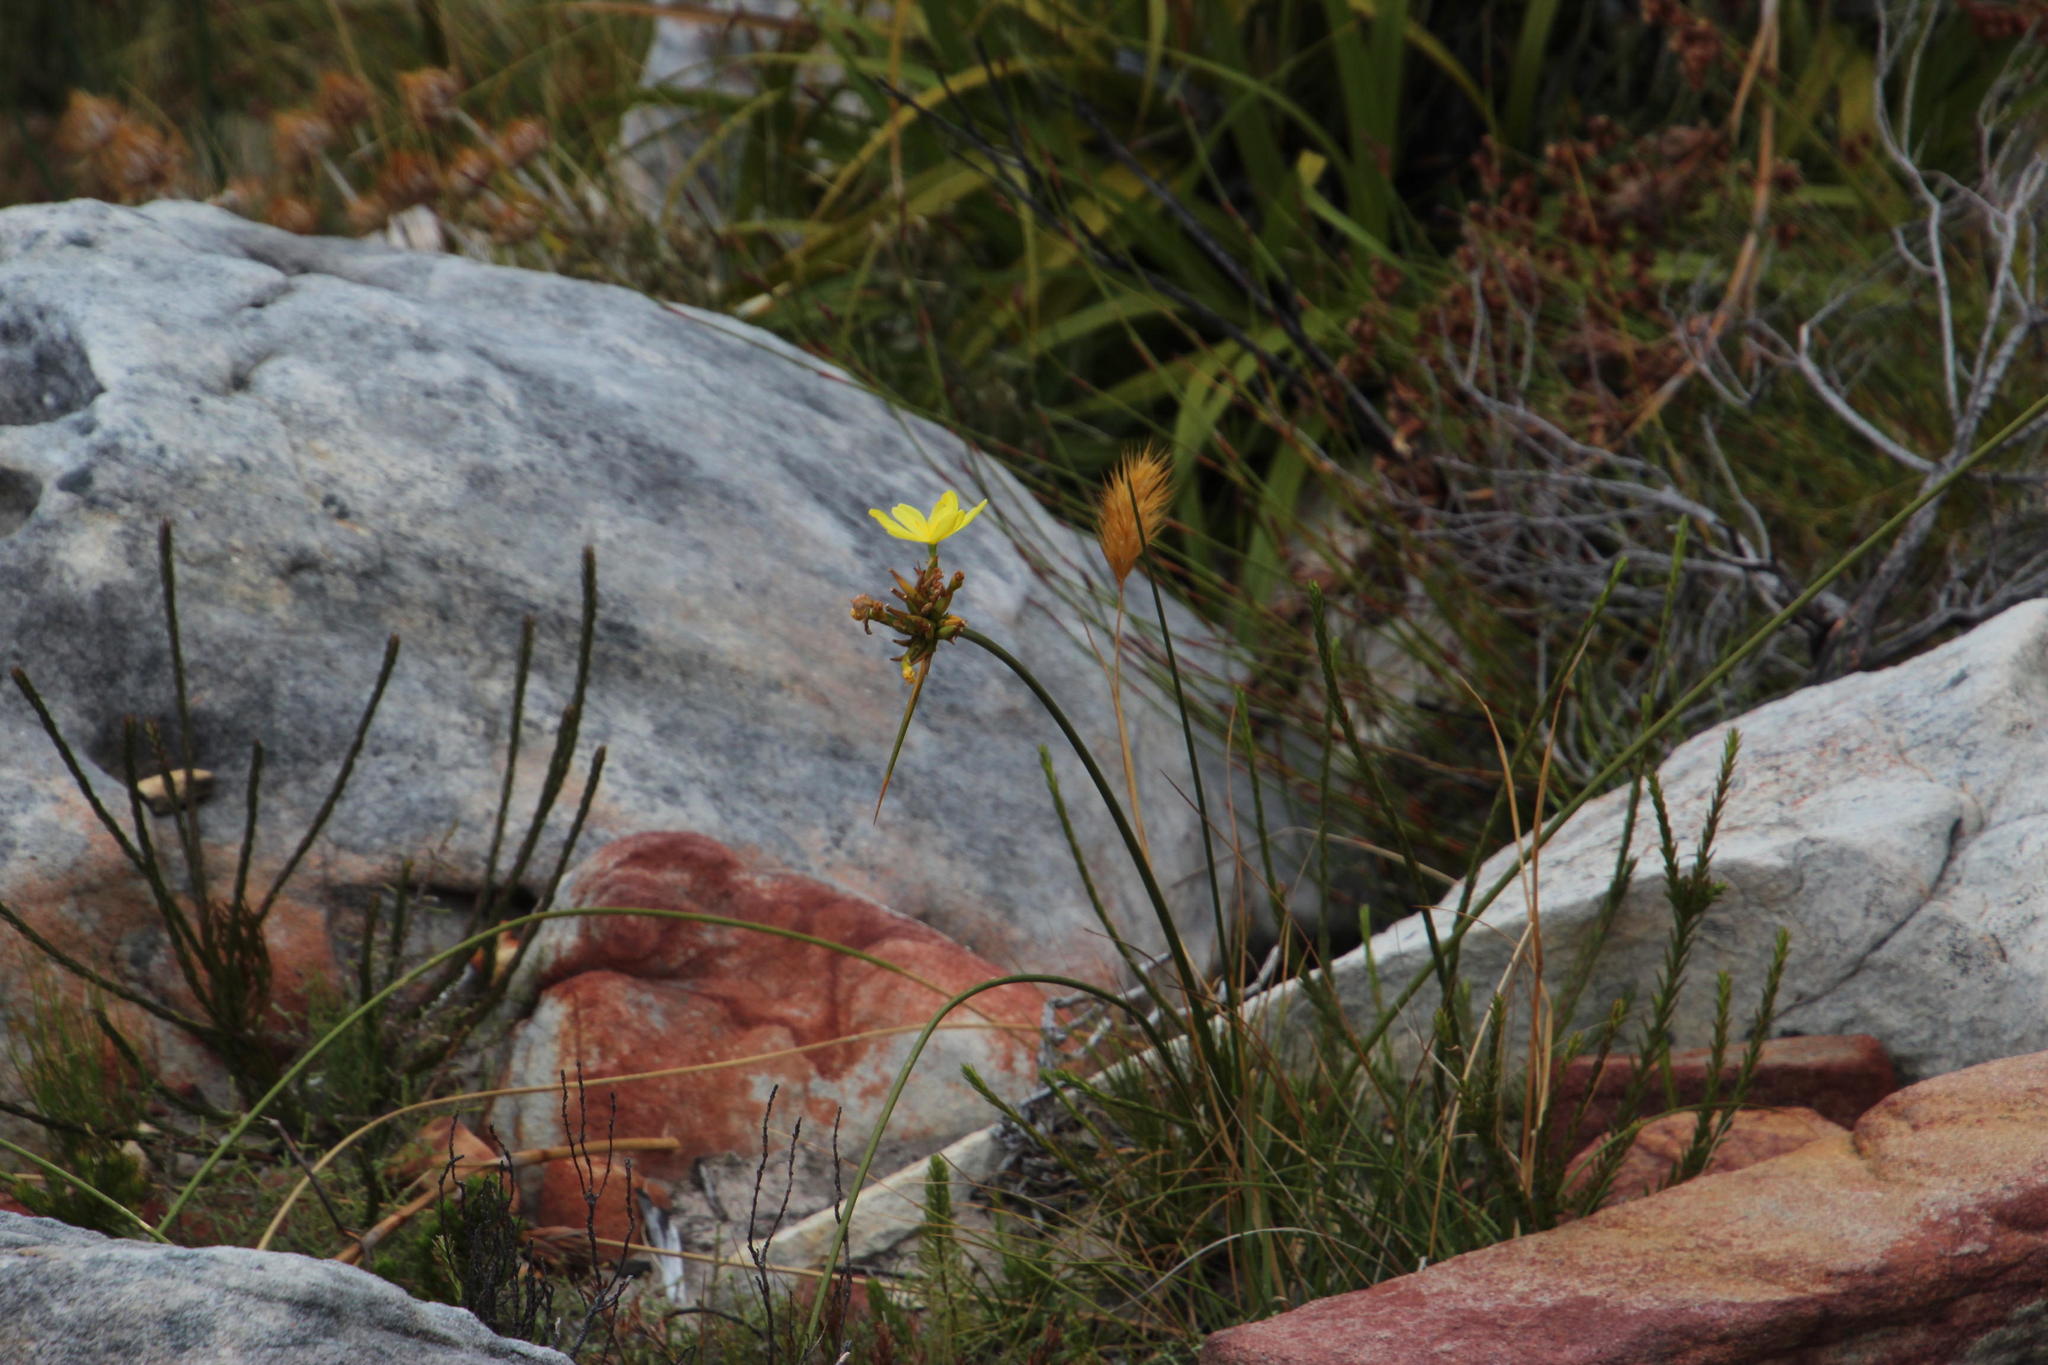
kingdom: Plantae
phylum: Tracheophyta
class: Liliopsida
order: Asparagales
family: Iridaceae
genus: Bobartia
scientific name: Bobartia indica
